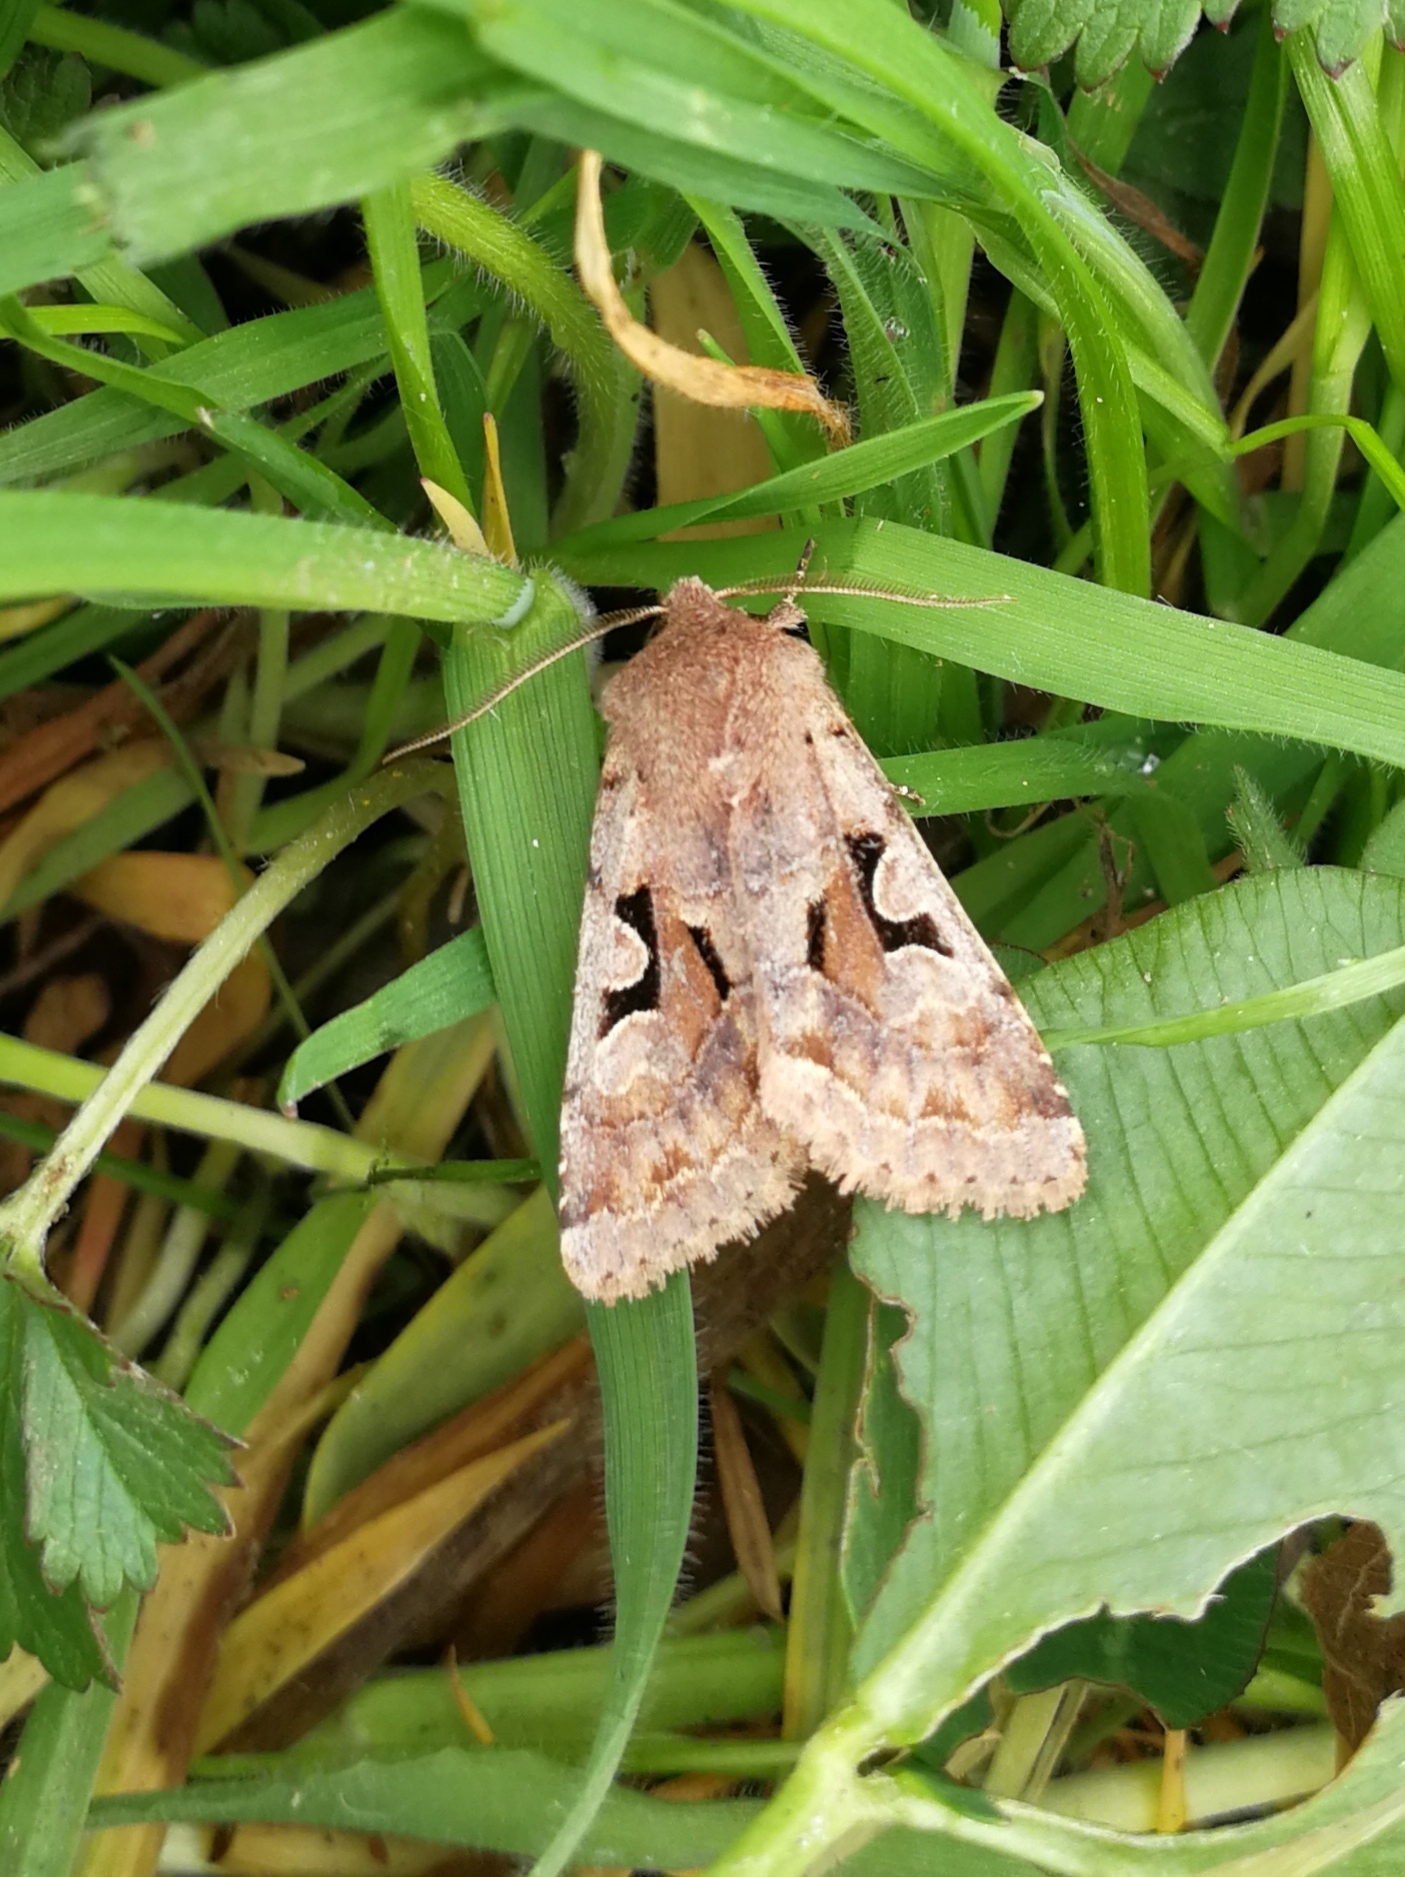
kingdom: Animalia
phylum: Arthropoda
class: Insecta
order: Lepidoptera
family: Noctuidae
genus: Orthosia
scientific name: Orthosia gothica
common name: Hebrew character
